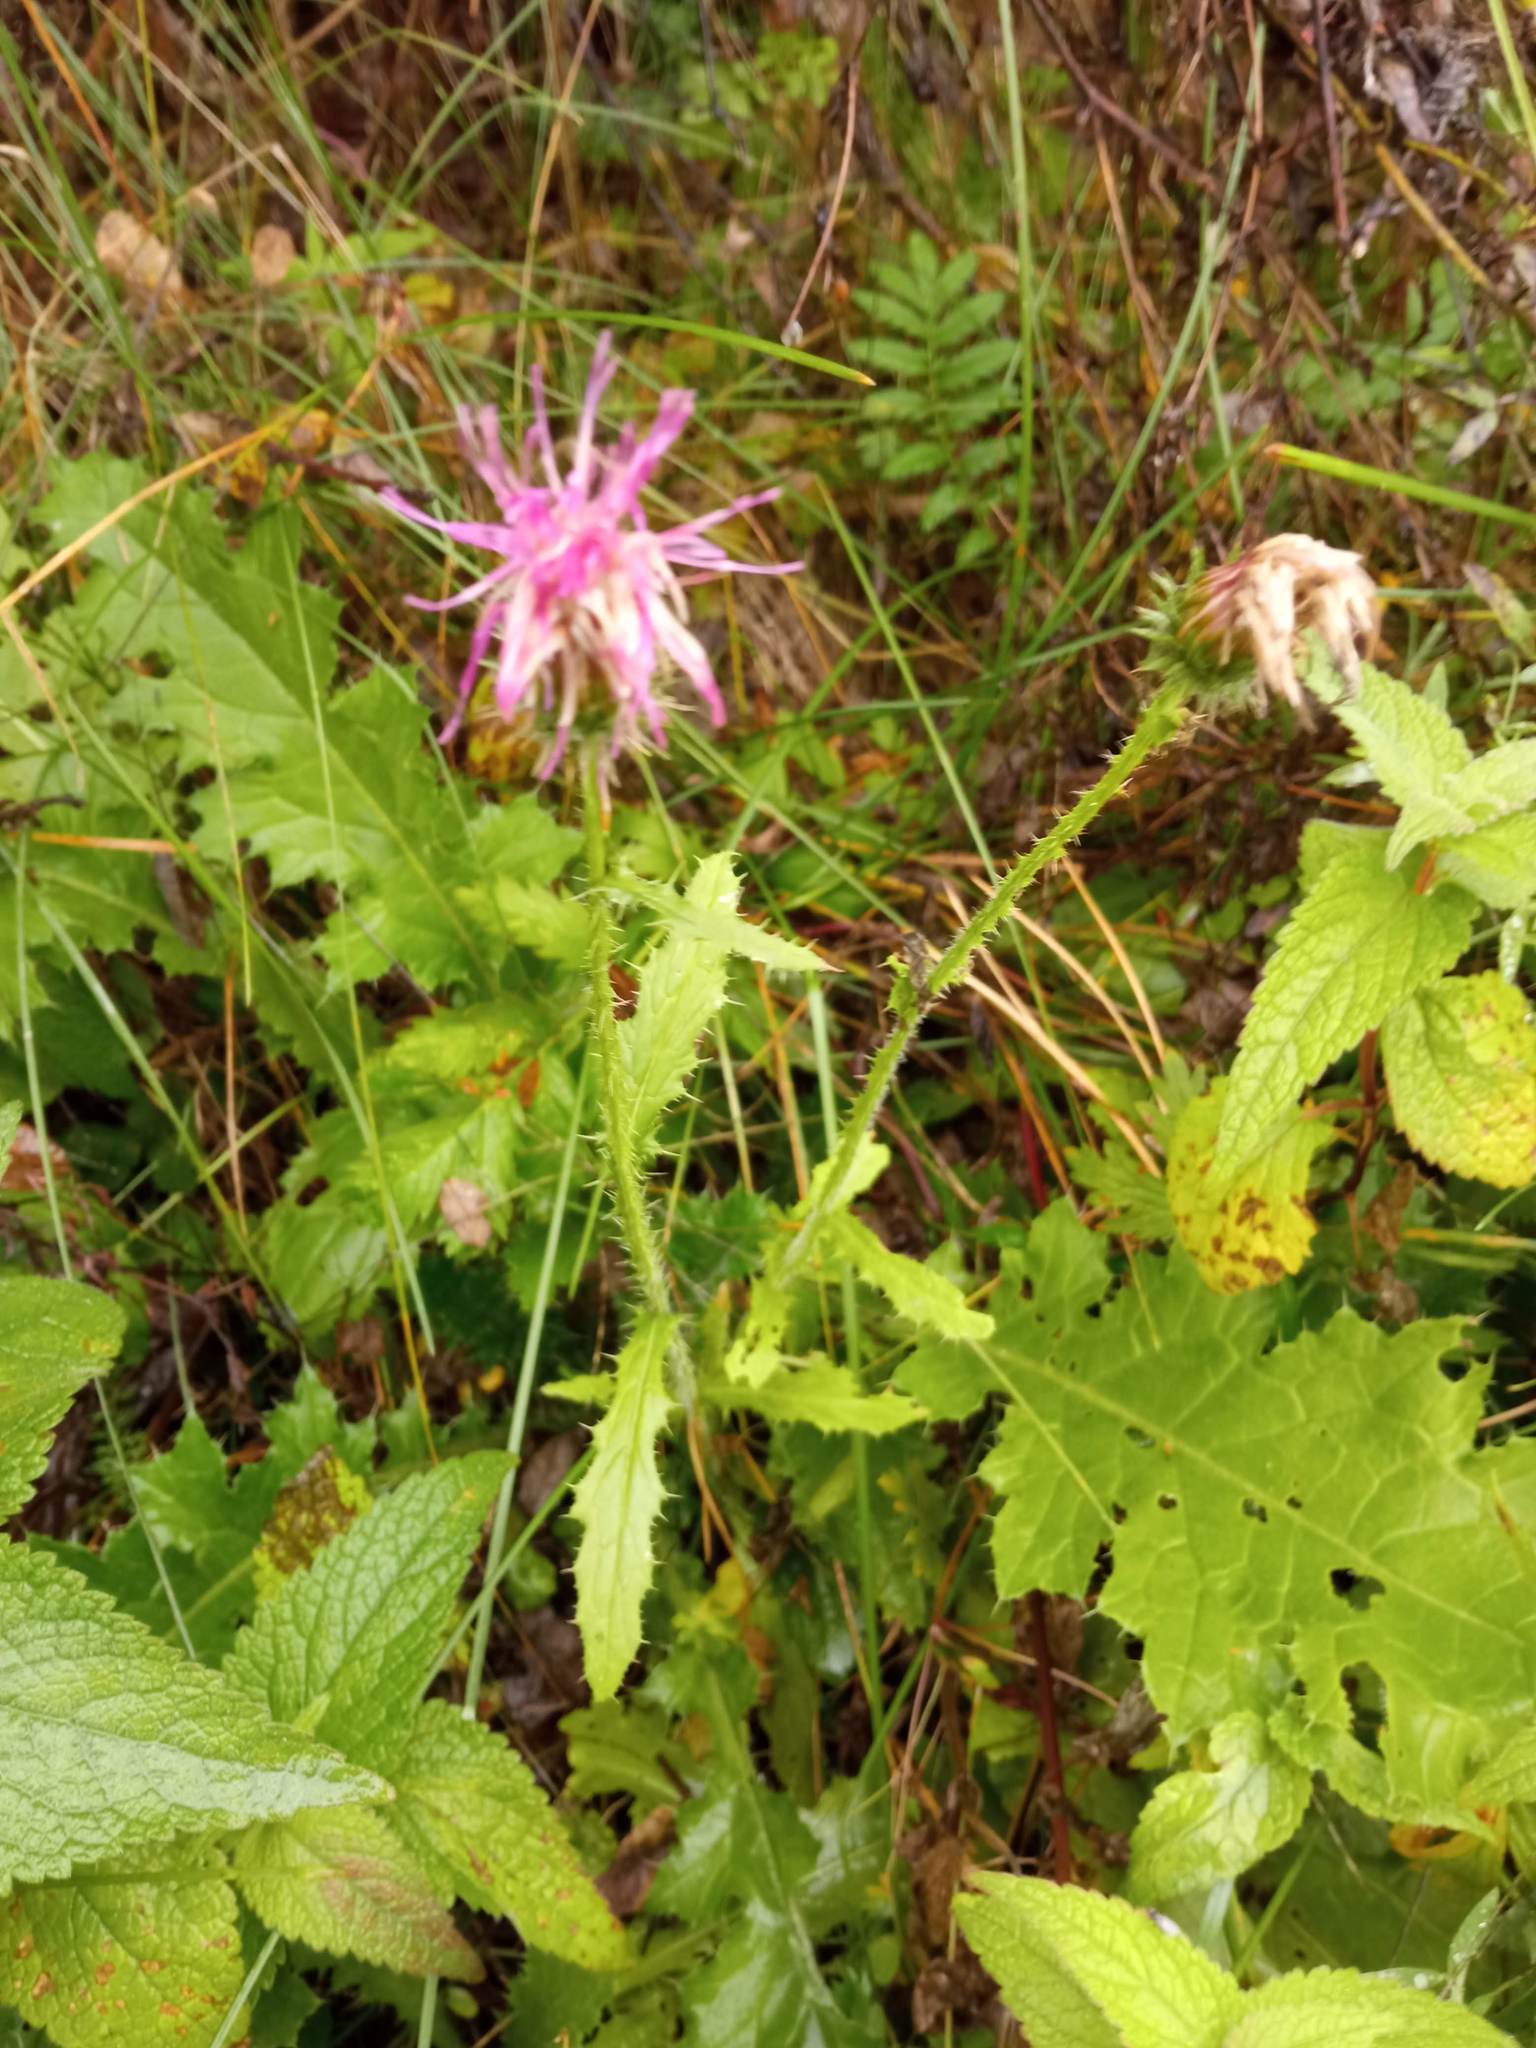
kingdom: Plantae
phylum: Tracheophyta
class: Magnoliopsida
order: Asterales
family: Asteraceae
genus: Carduus
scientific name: Carduus crispus
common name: Welted thistle
